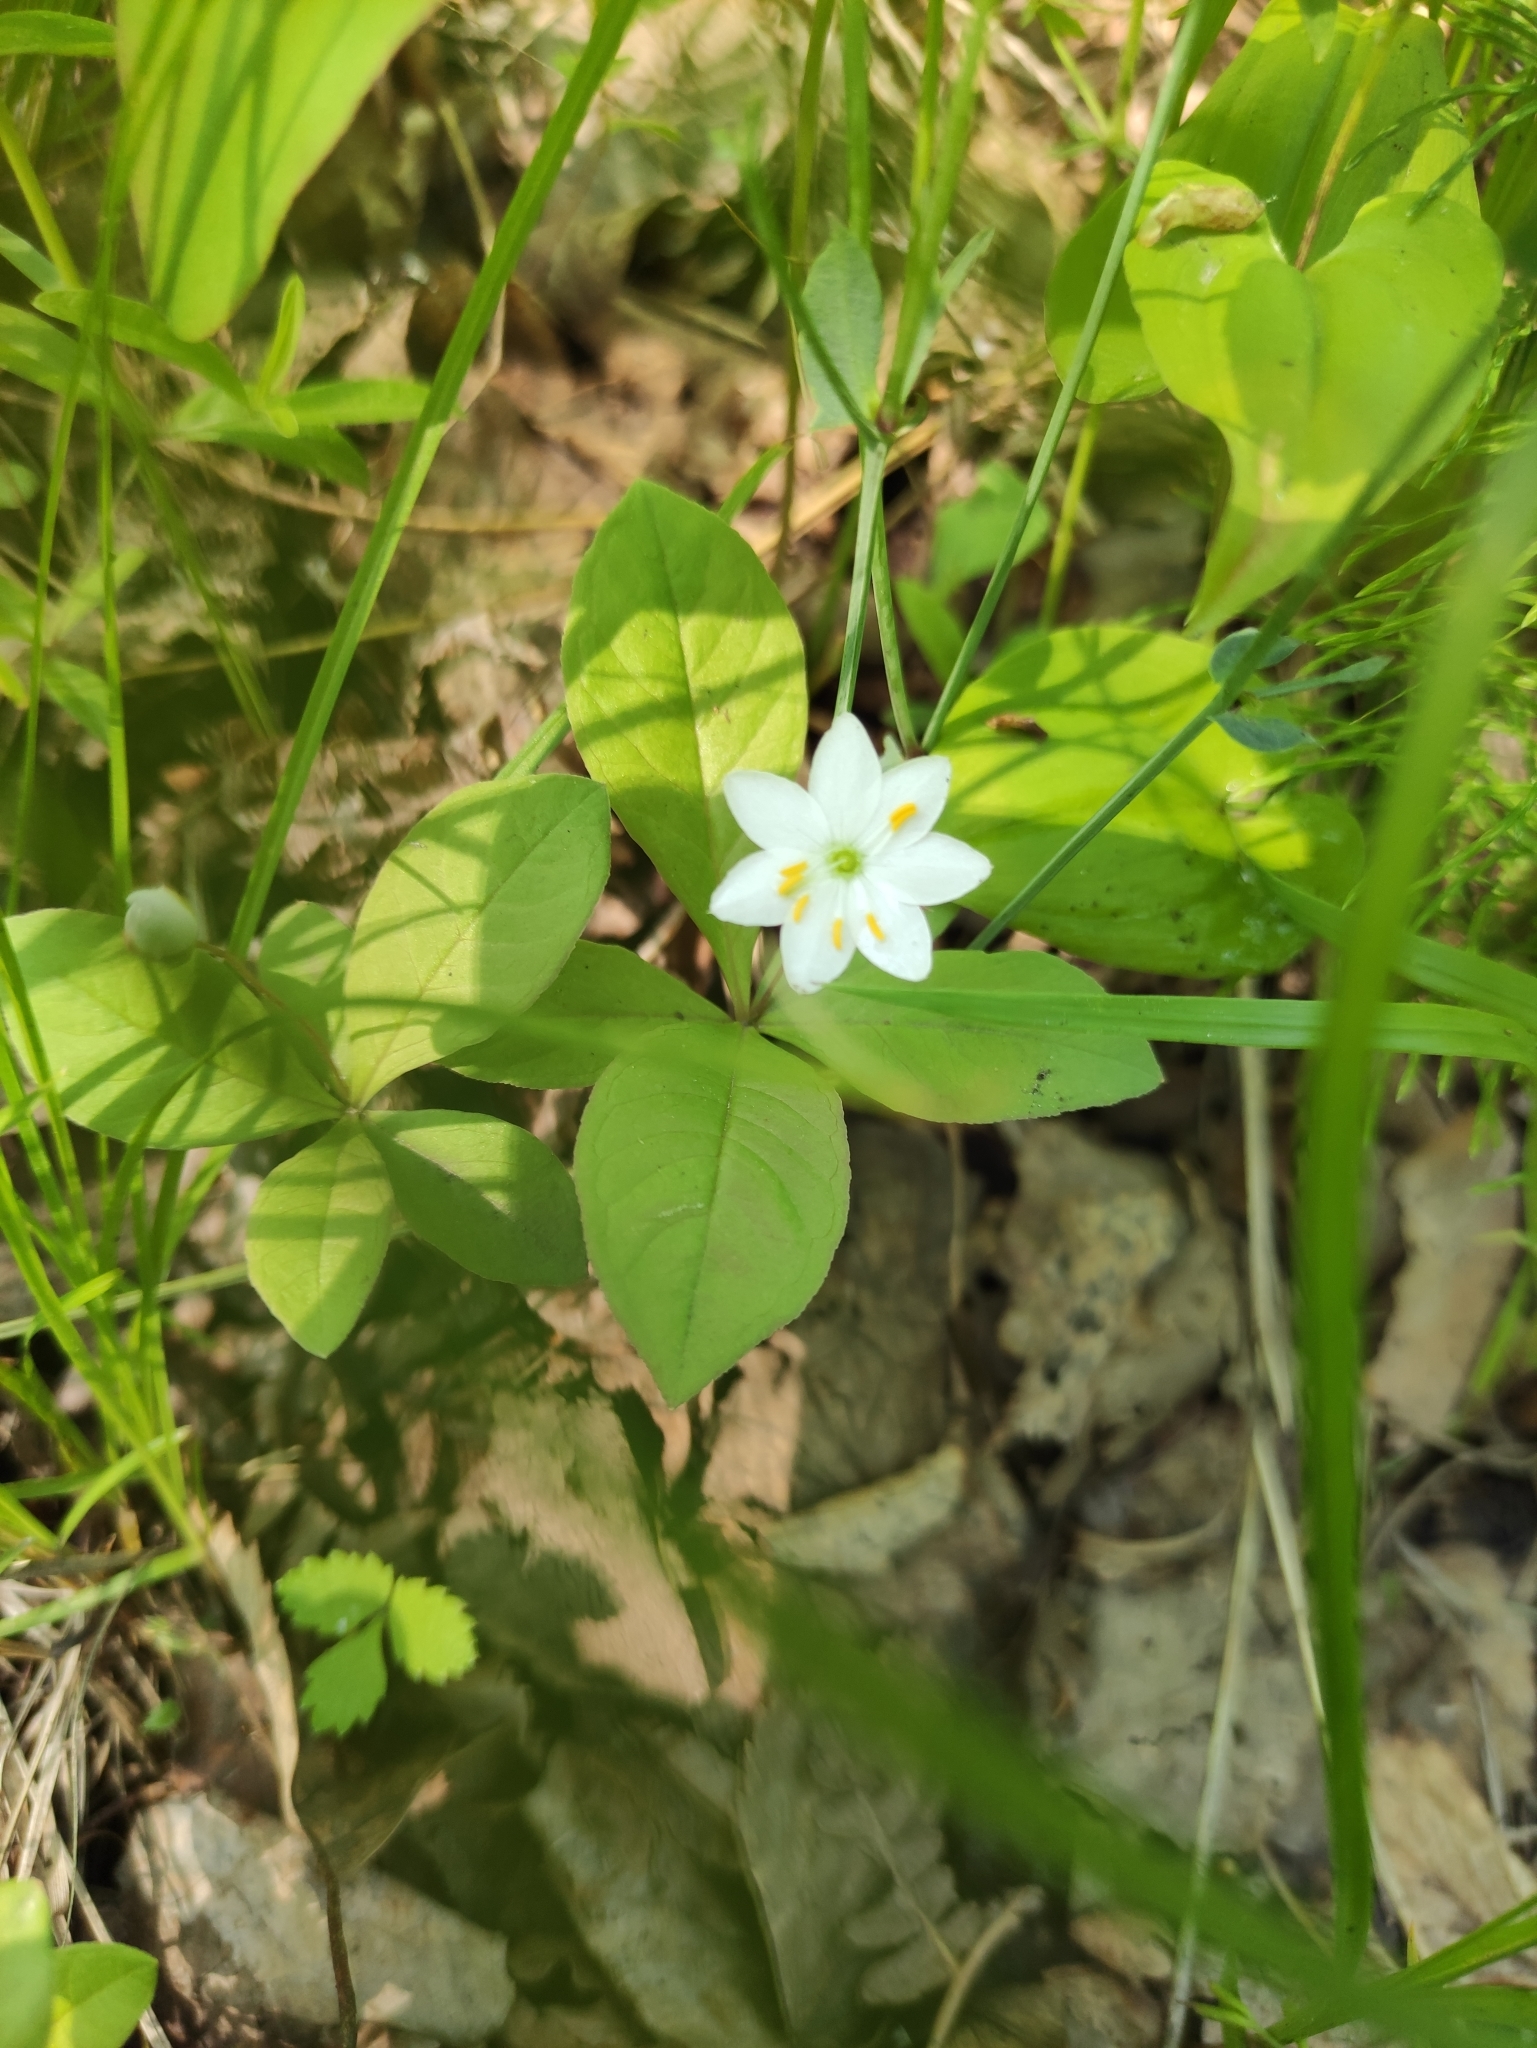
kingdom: Plantae
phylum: Tracheophyta
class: Magnoliopsida
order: Ericales
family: Primulaceae
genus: Lysimachia
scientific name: Lysimachia europaea
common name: Arctic starflower
